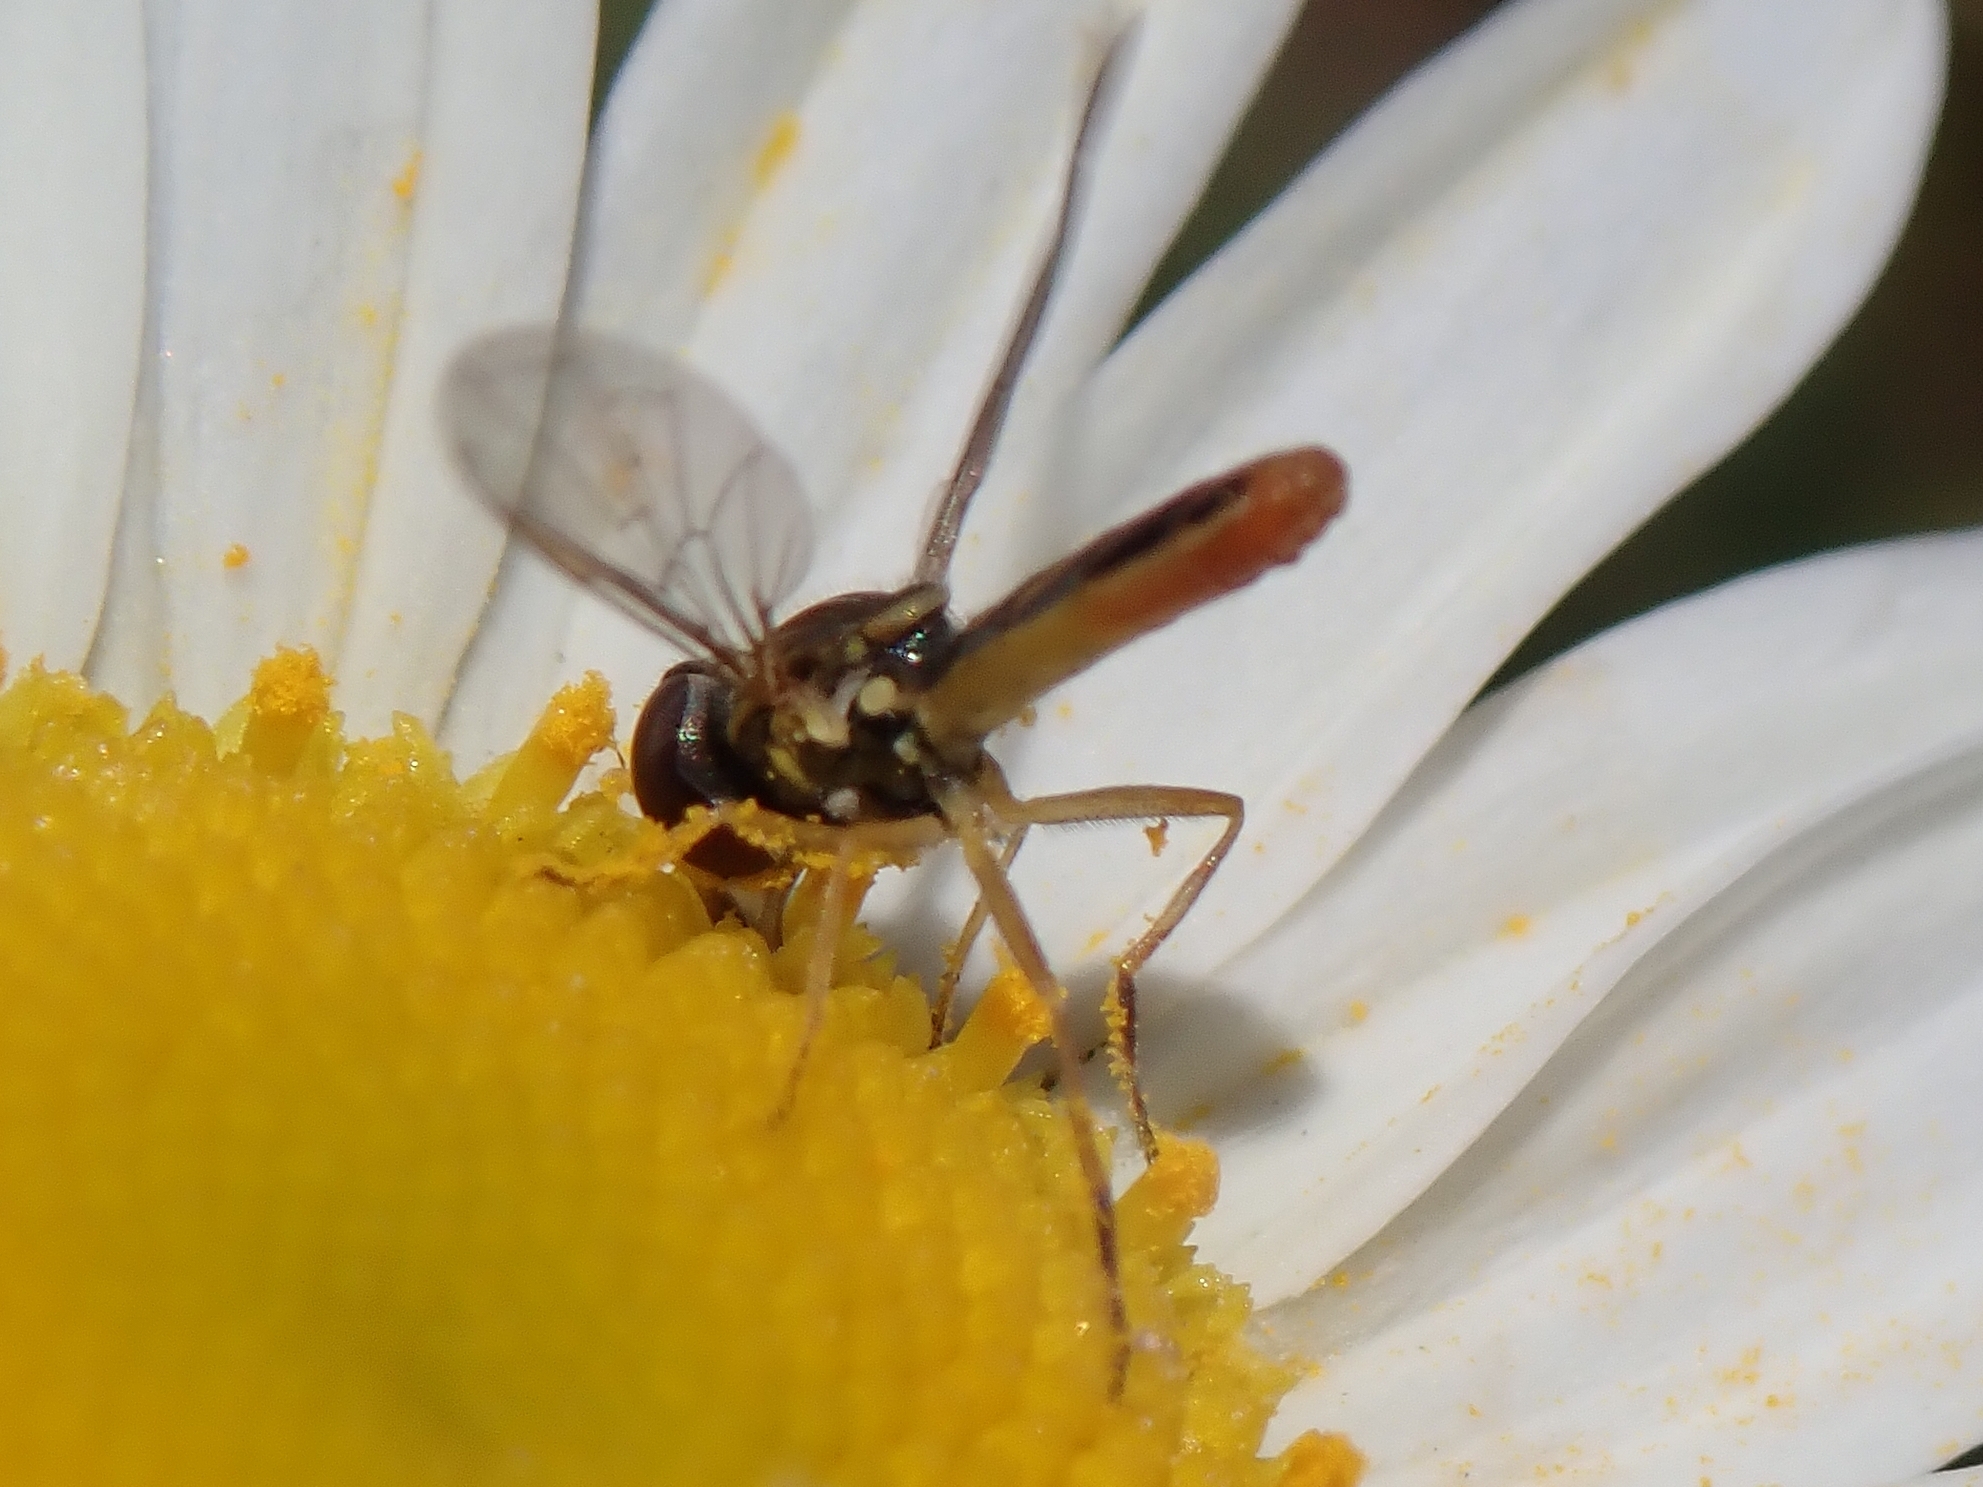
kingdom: Animalia
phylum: Arthropoda
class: Insecta
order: Diptera
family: Syrphidae
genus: Toxomerus
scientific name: Toxomerus marginatus
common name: Syrphid fly
